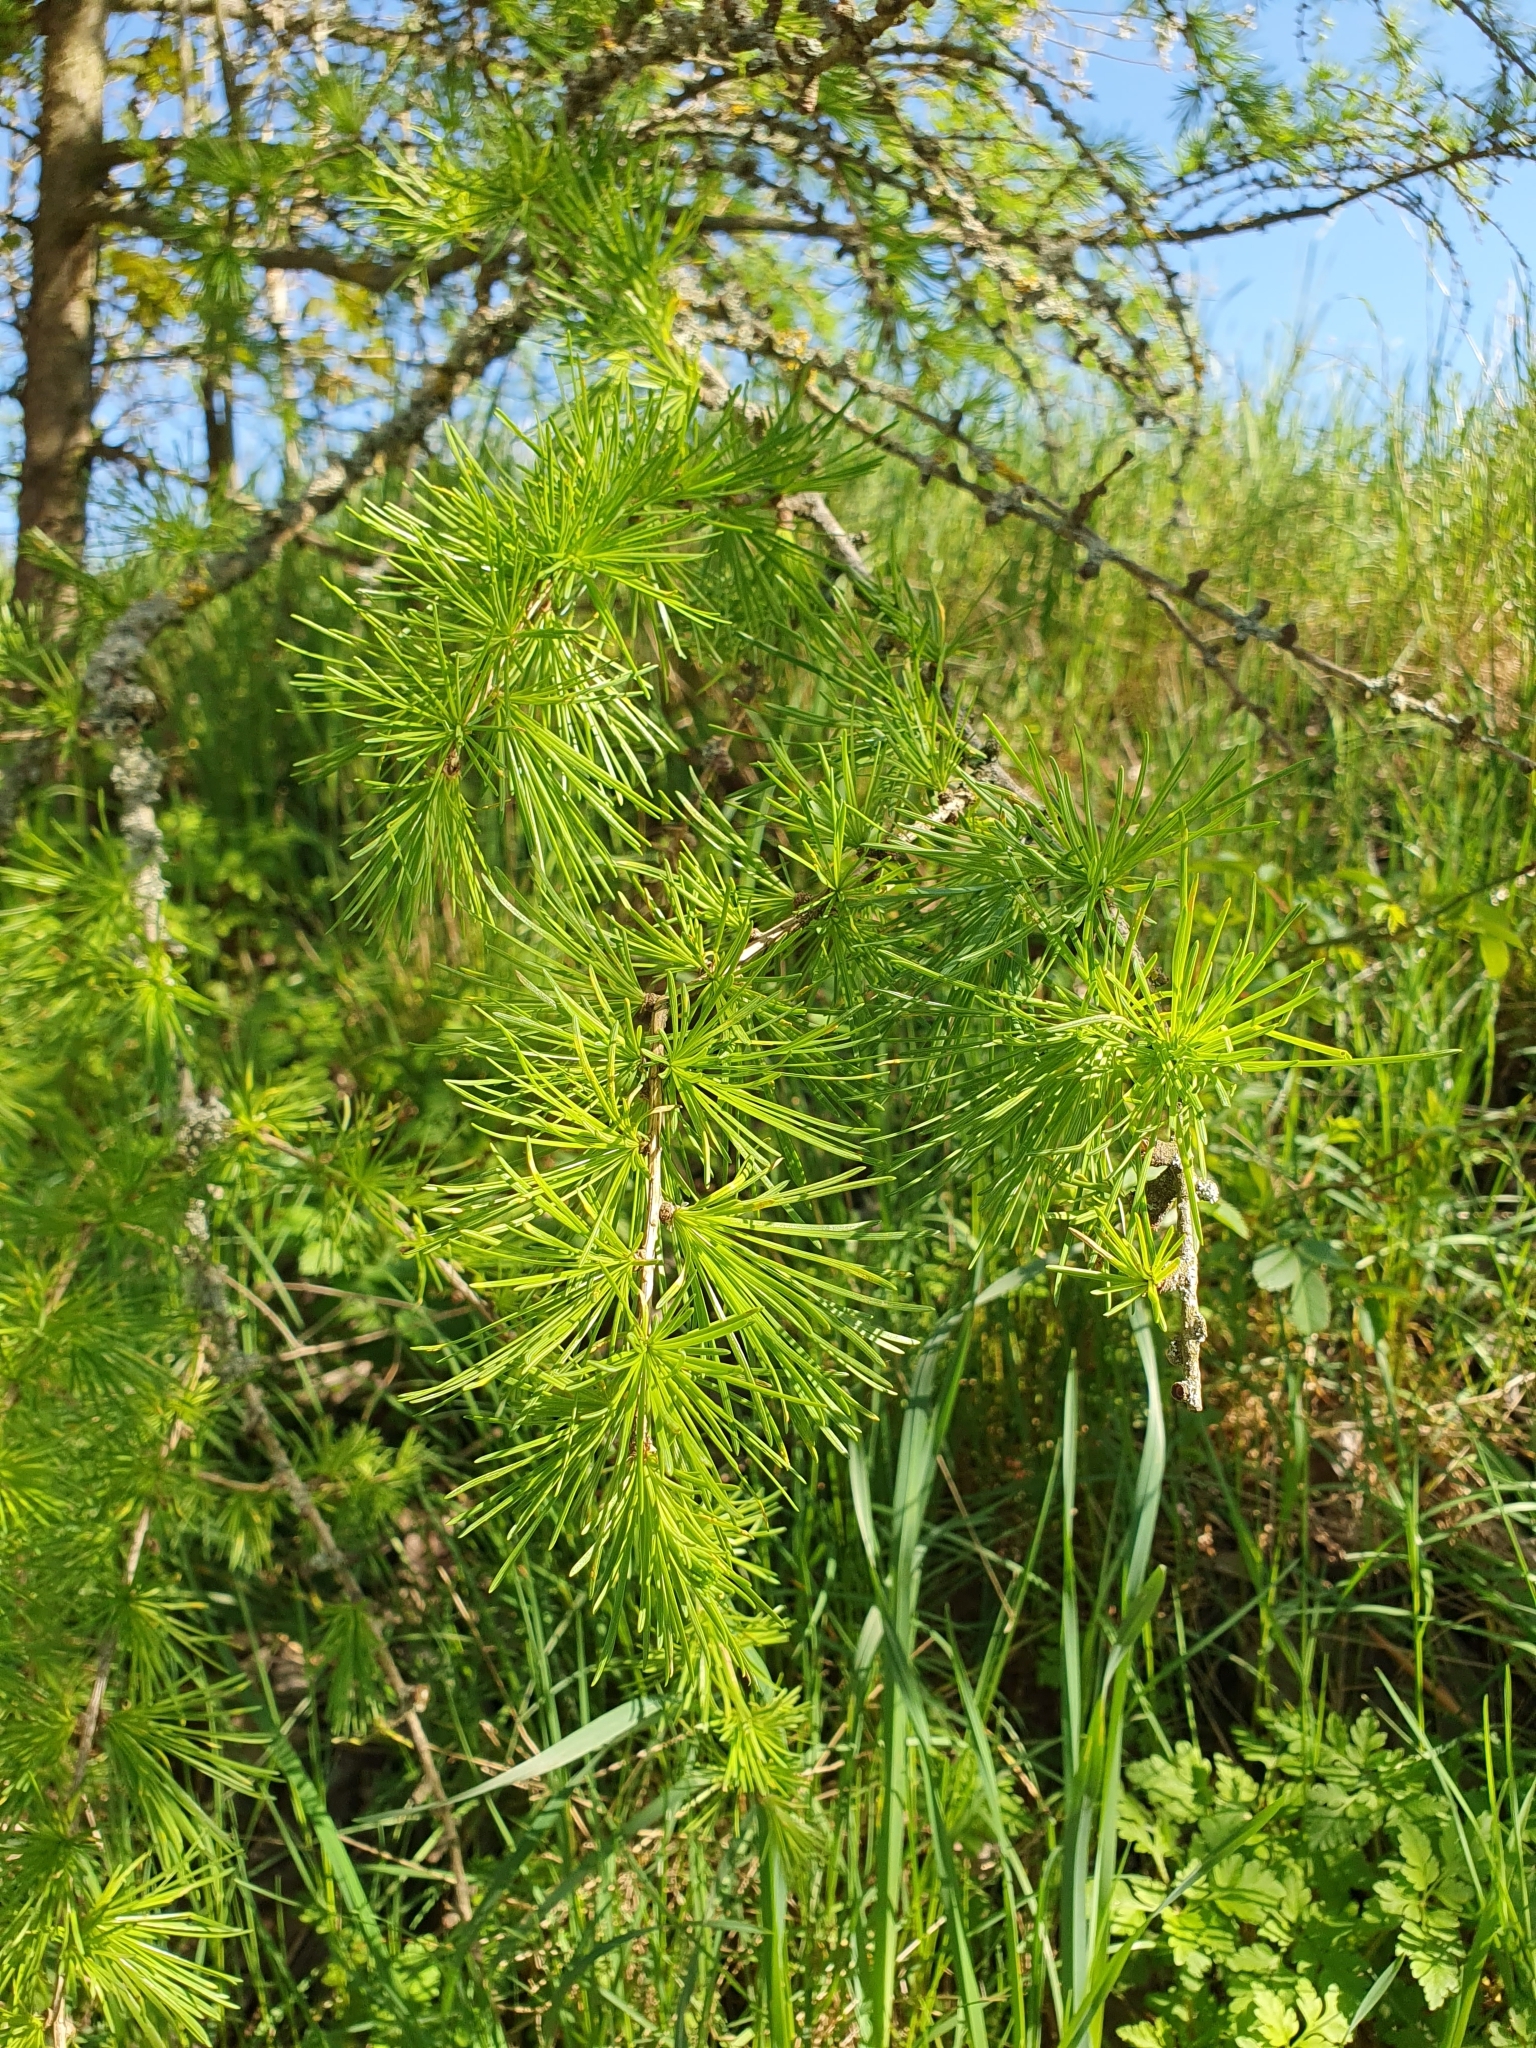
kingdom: Plantae
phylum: Tracheophyta
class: Pinopsida
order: Pinales
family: Pinaceae
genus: Larix
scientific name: Larix decidua
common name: European larch
